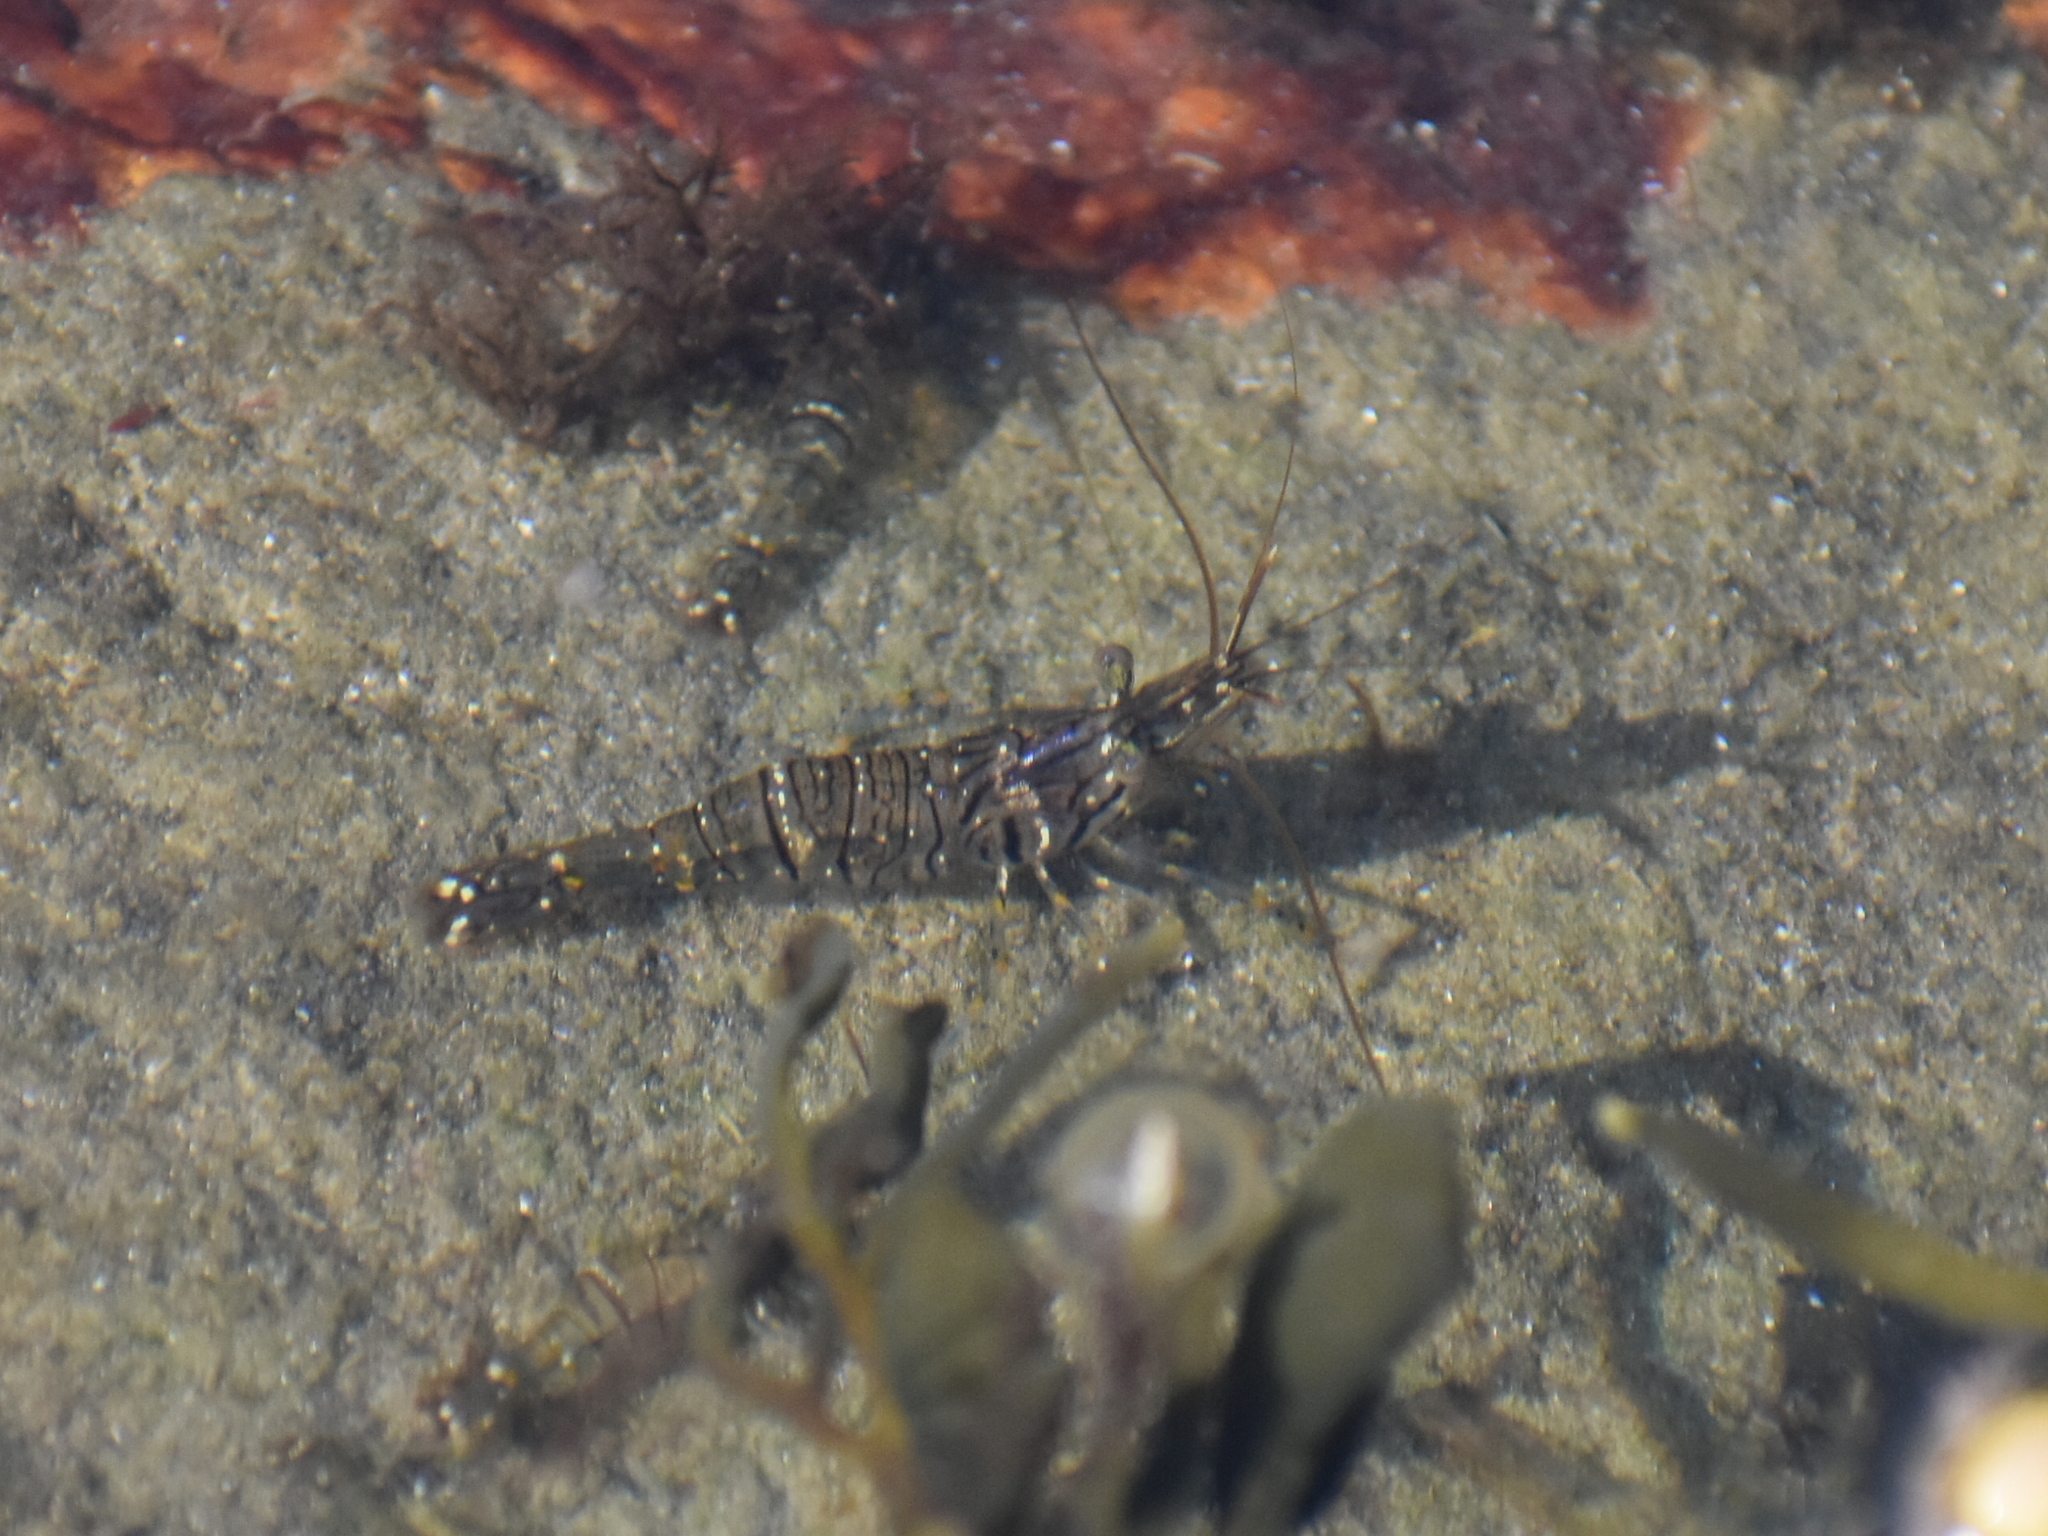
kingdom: Animalia
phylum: Arthropoda
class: Malacostraca
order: Decapoda
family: Palaemonidae
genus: Palaemon
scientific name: Palaemon elegans
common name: Grass prawm
